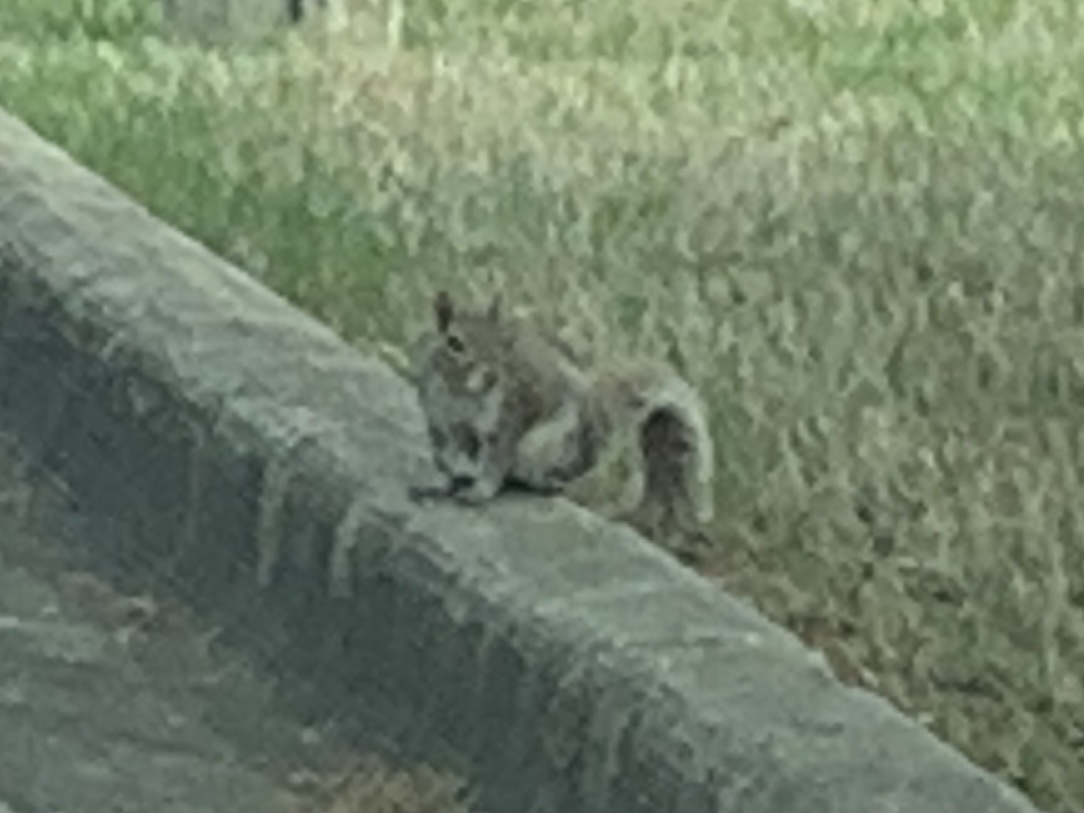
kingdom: Animalia
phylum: Chordata
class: Mammalia
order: Rodentia
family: Sciuridae
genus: Sciurus
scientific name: Sciurus carolinensis
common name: Eastern gray squirrel
